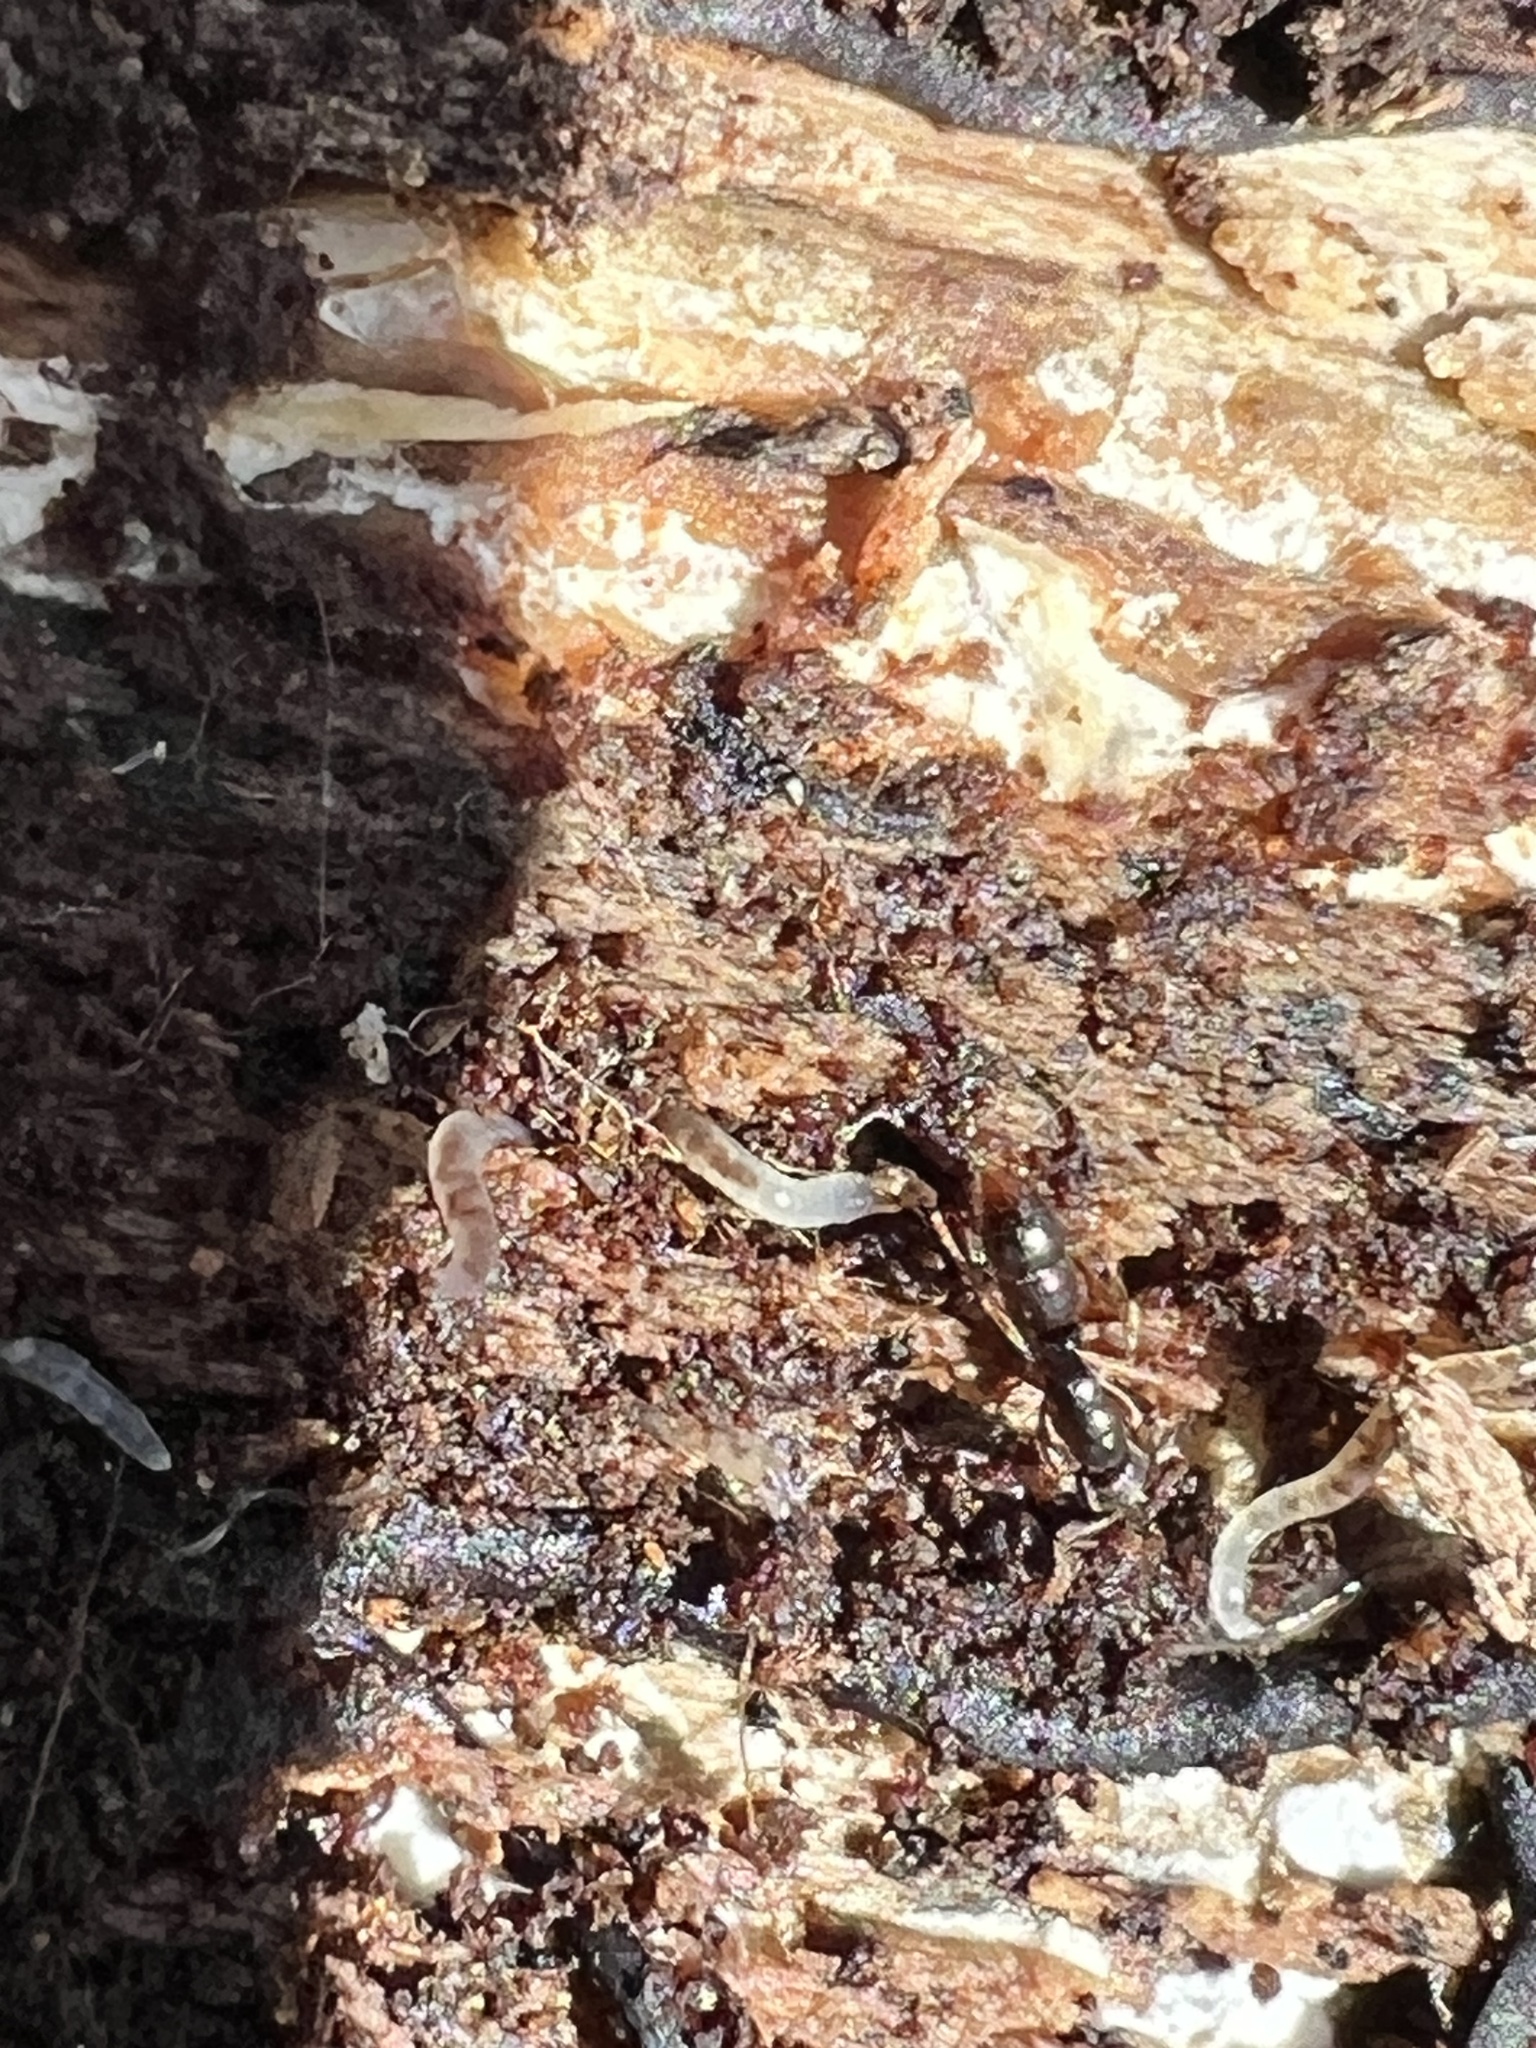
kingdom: Animalia
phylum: Arthropoda
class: Insecta
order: Hymenoptera
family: Formicidae
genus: Ponera
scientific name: Ponera pennsylvanica
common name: Pennsylvania ponera
